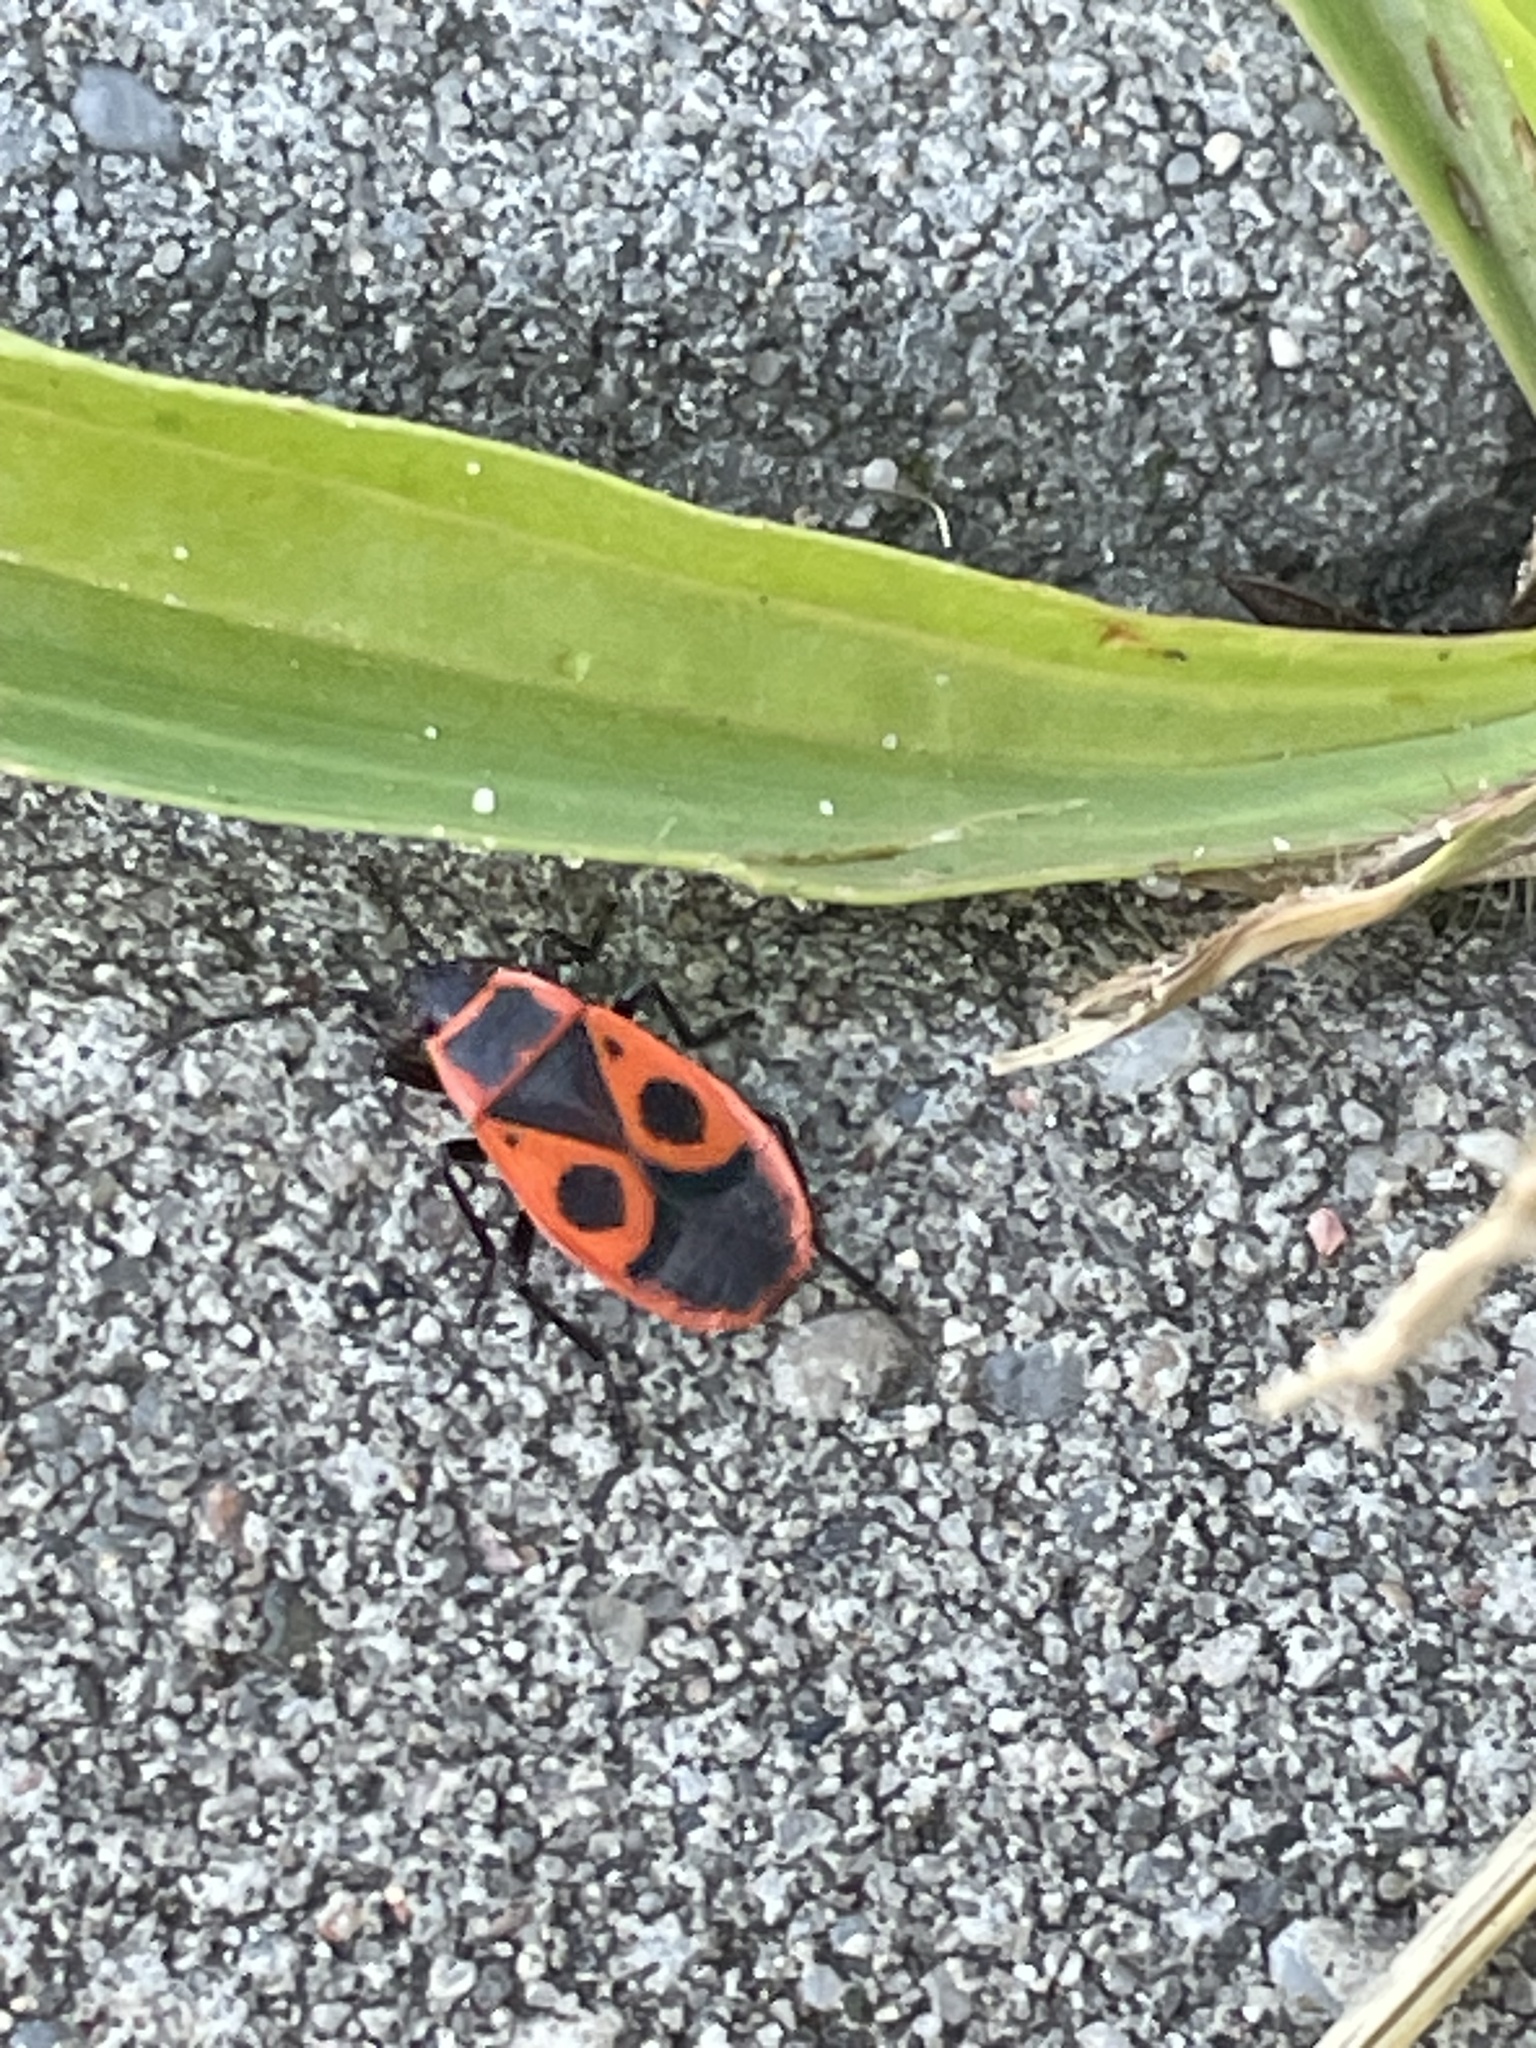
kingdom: Animalia
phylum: Arthropoda
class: Insecta
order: Hemiptera
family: Pyrrhocoridae
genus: Pyrrhocoris
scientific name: Pyrrhocoris apterus
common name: Firebug
